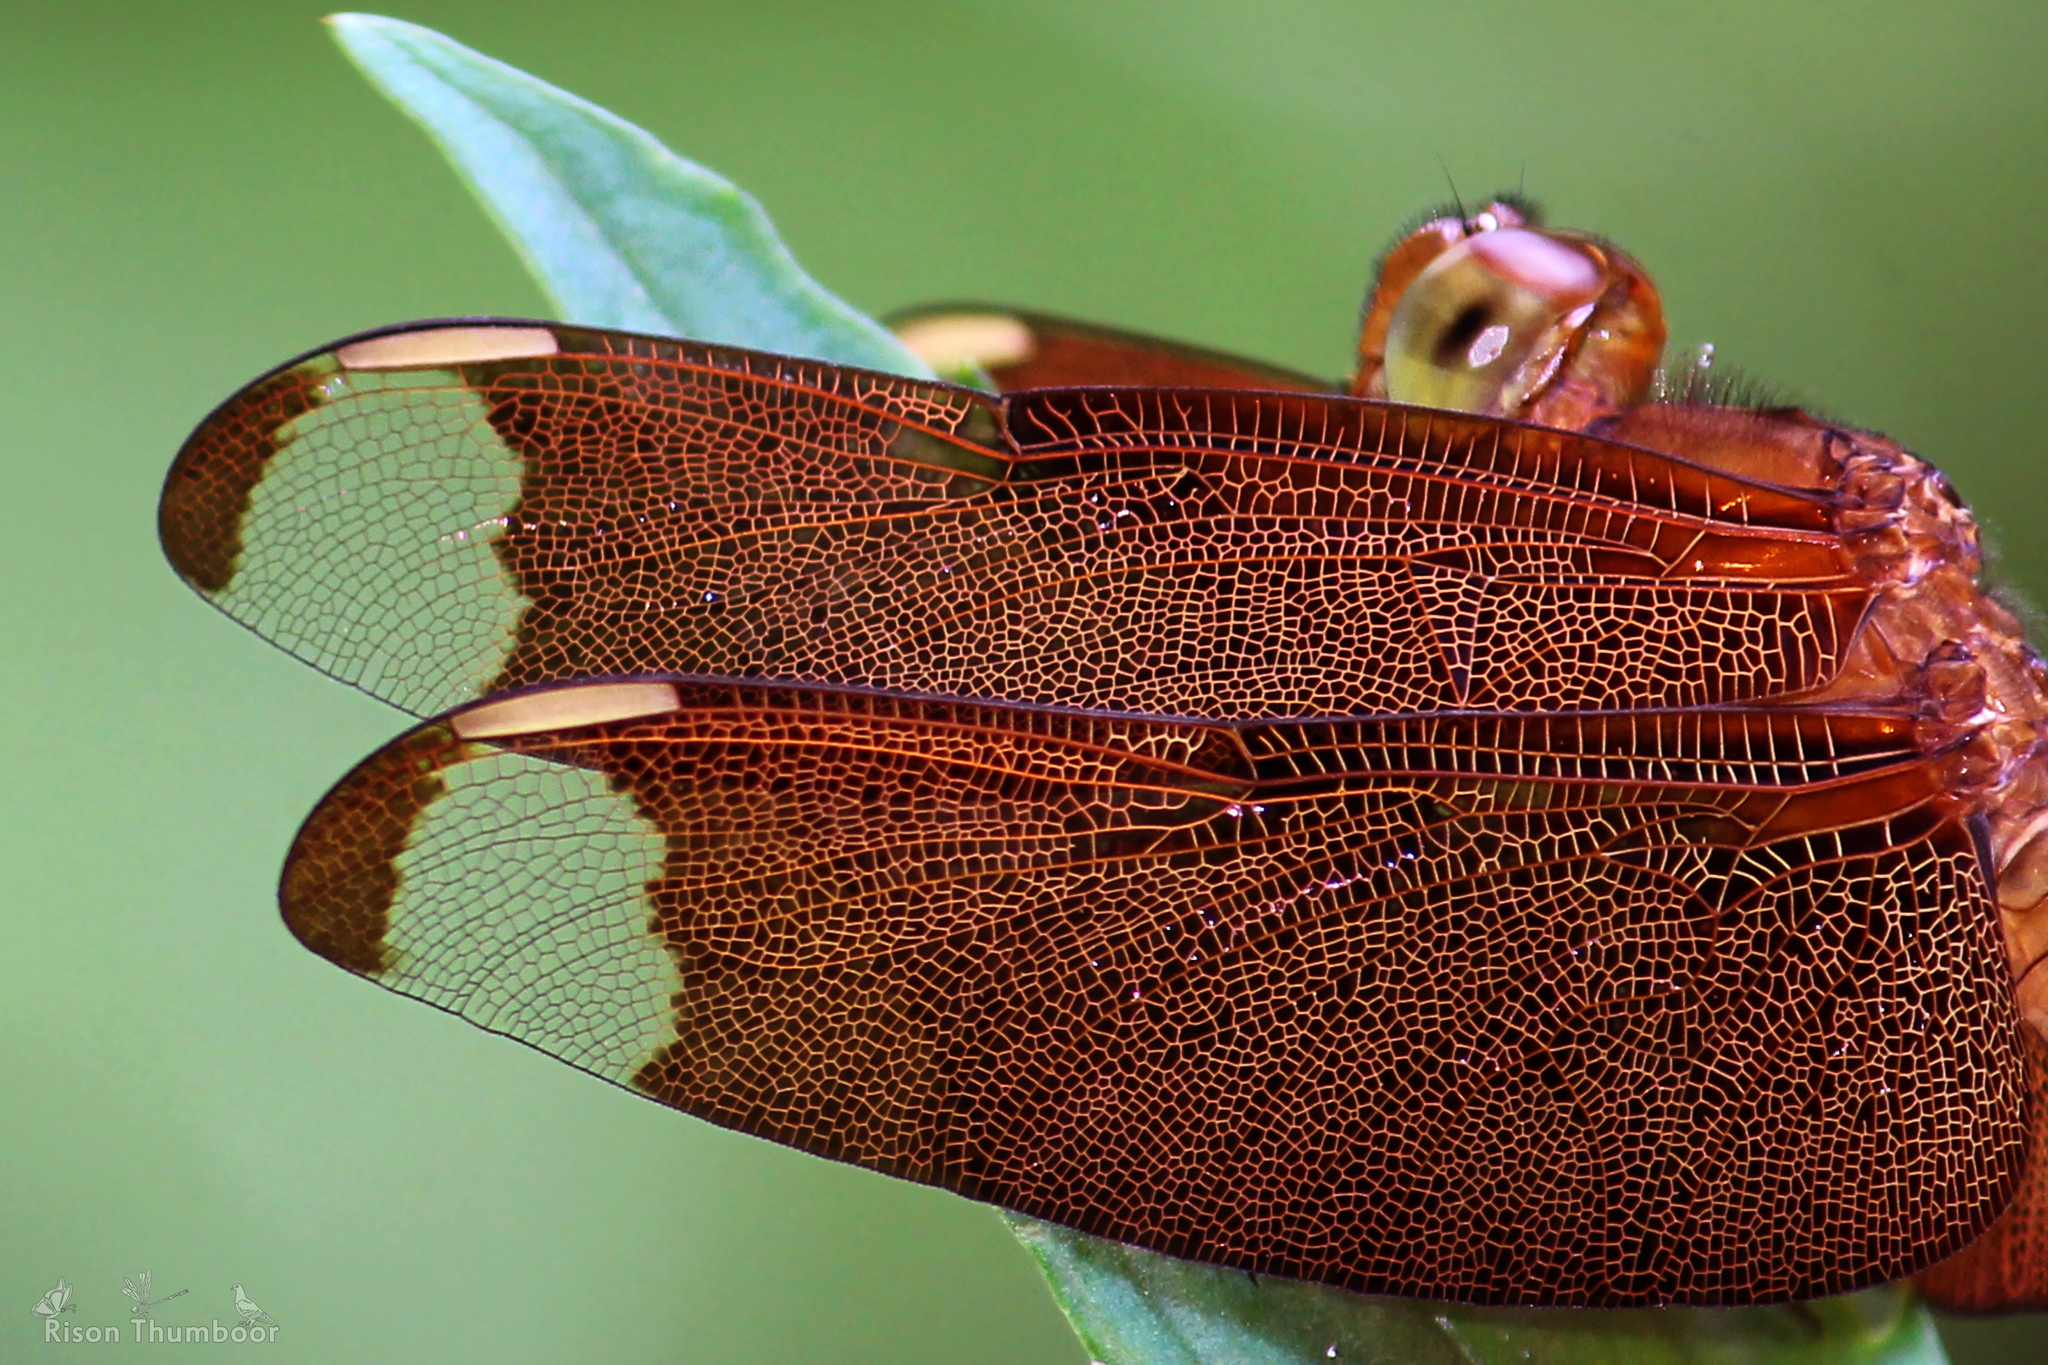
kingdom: Animalia
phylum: Arthropoda
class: Insecta
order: Odonata
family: Libellulidae
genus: Neurothemis
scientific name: Neurothemis fulvia
